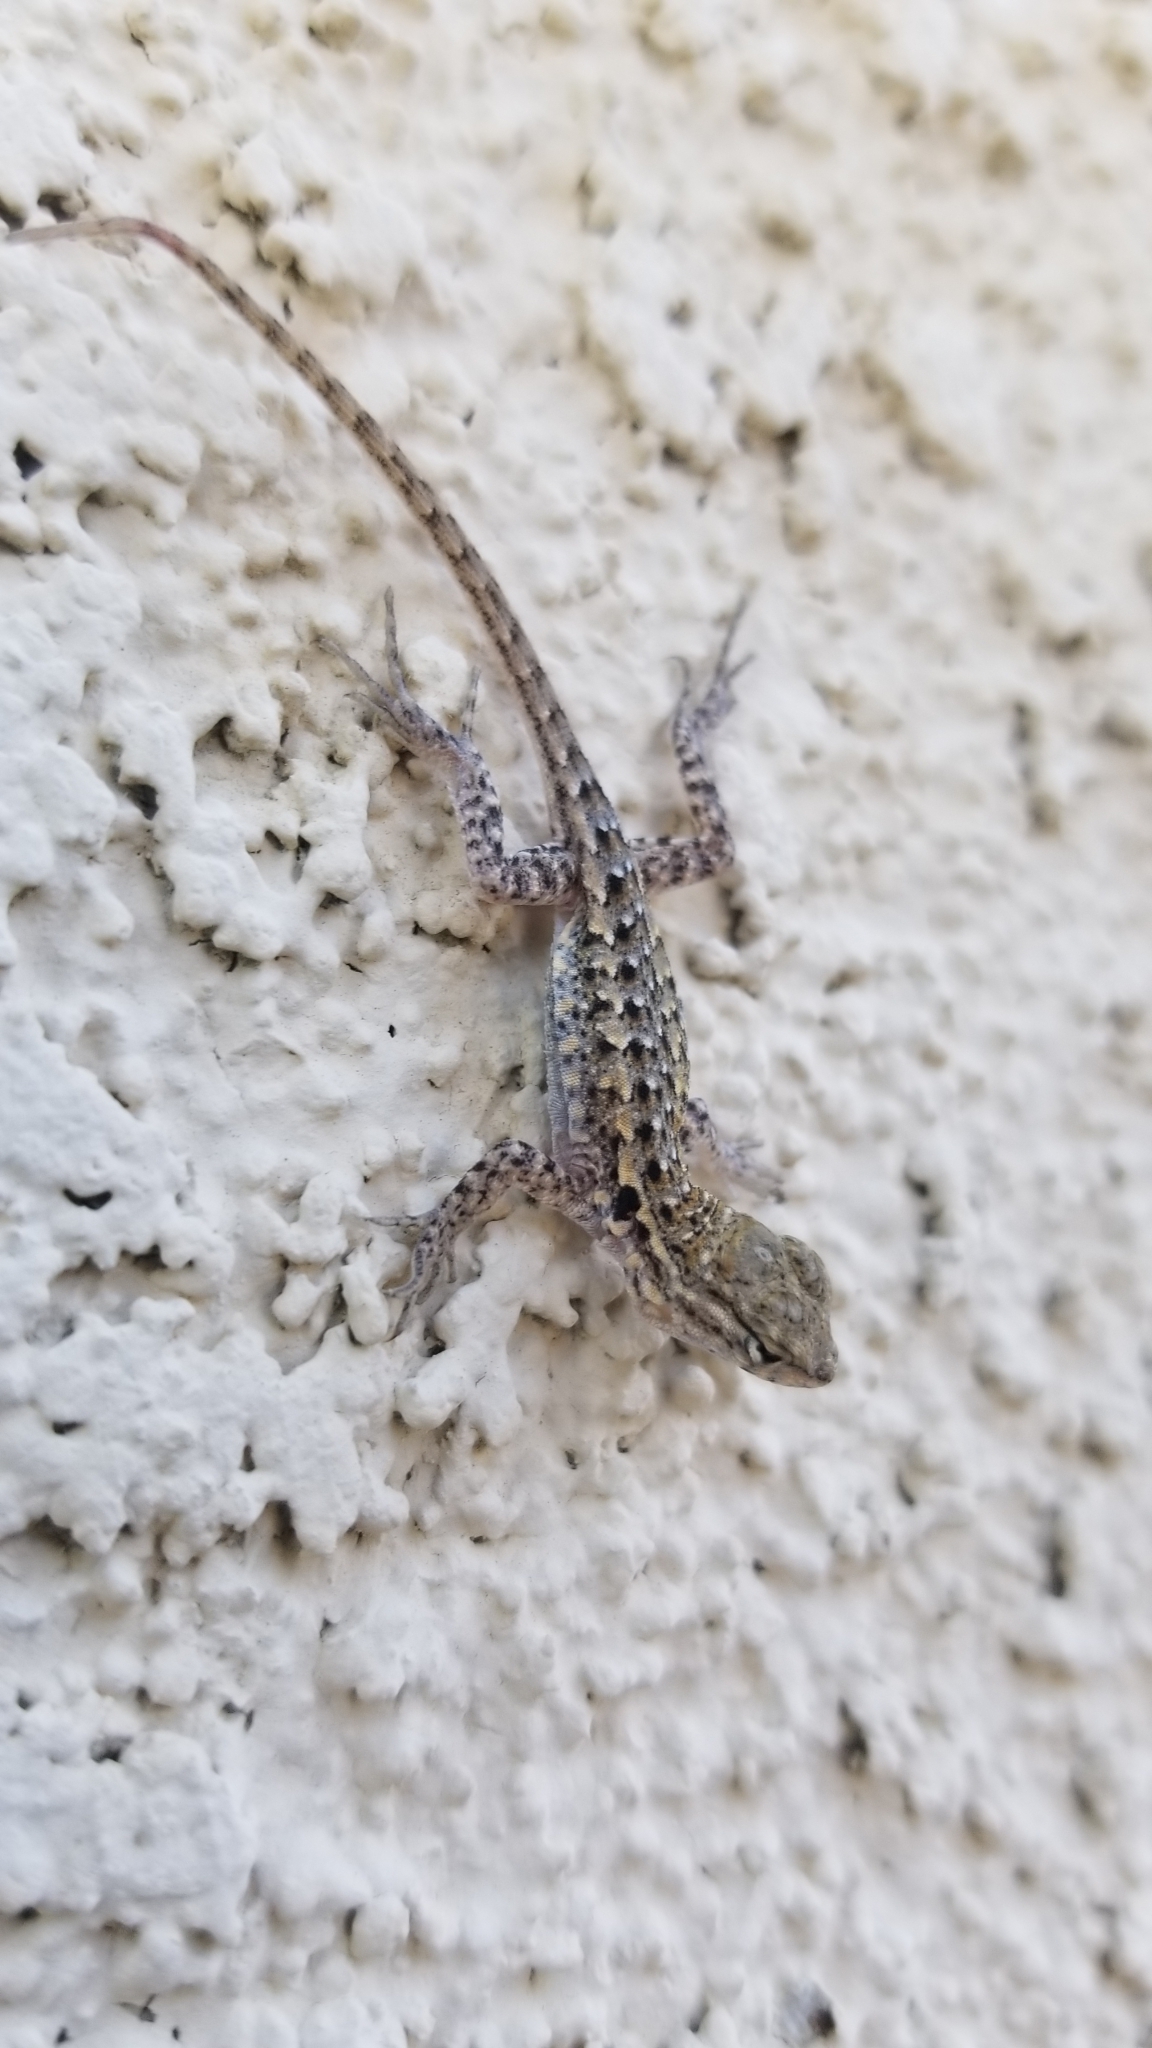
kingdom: Animalia
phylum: Chordata
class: Squamata
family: Phrynosomatidae
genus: Uta
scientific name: Uta stansburiana
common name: Side-blotched lizard
